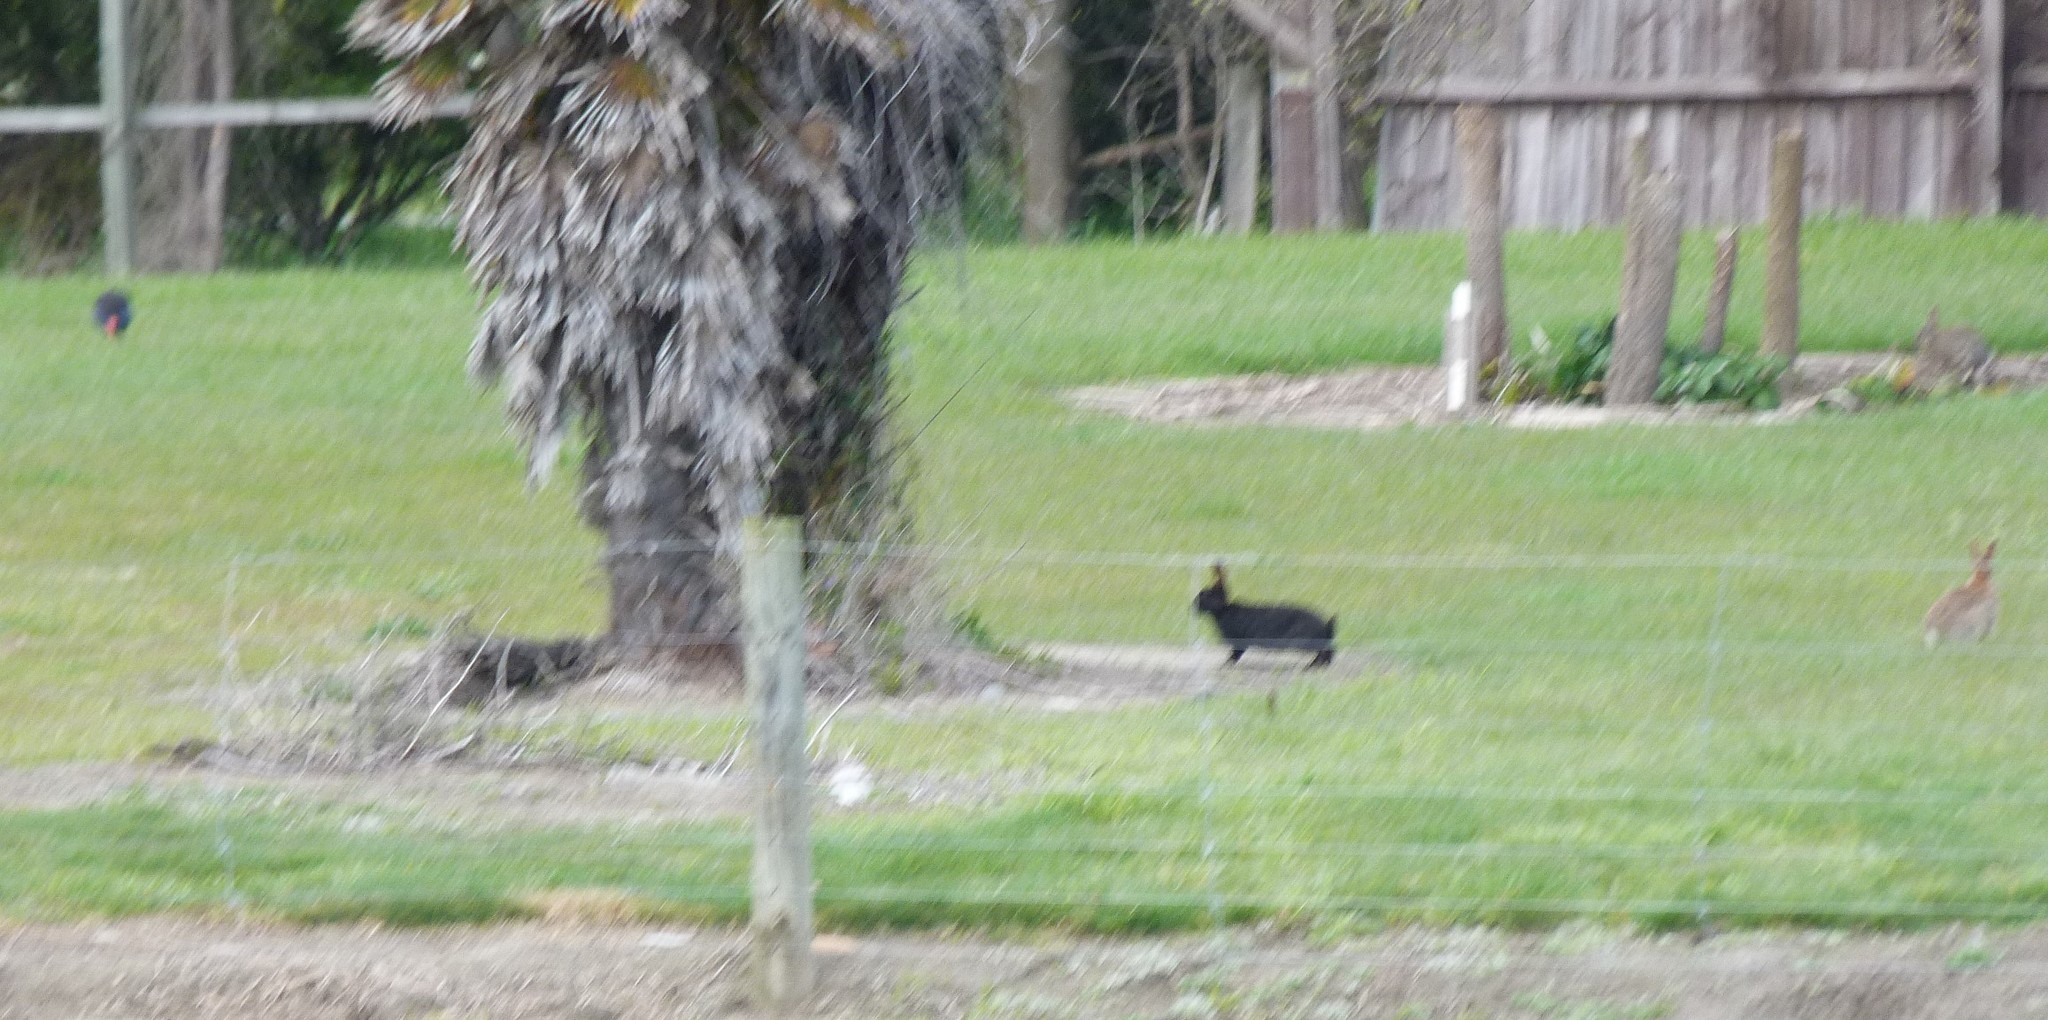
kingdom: Animalia
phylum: Chordata
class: Mammalia
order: Lagomorpha
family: Leporidae
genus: Oryctolagus
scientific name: Oryctolagus cuniculus
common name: European rabbit
